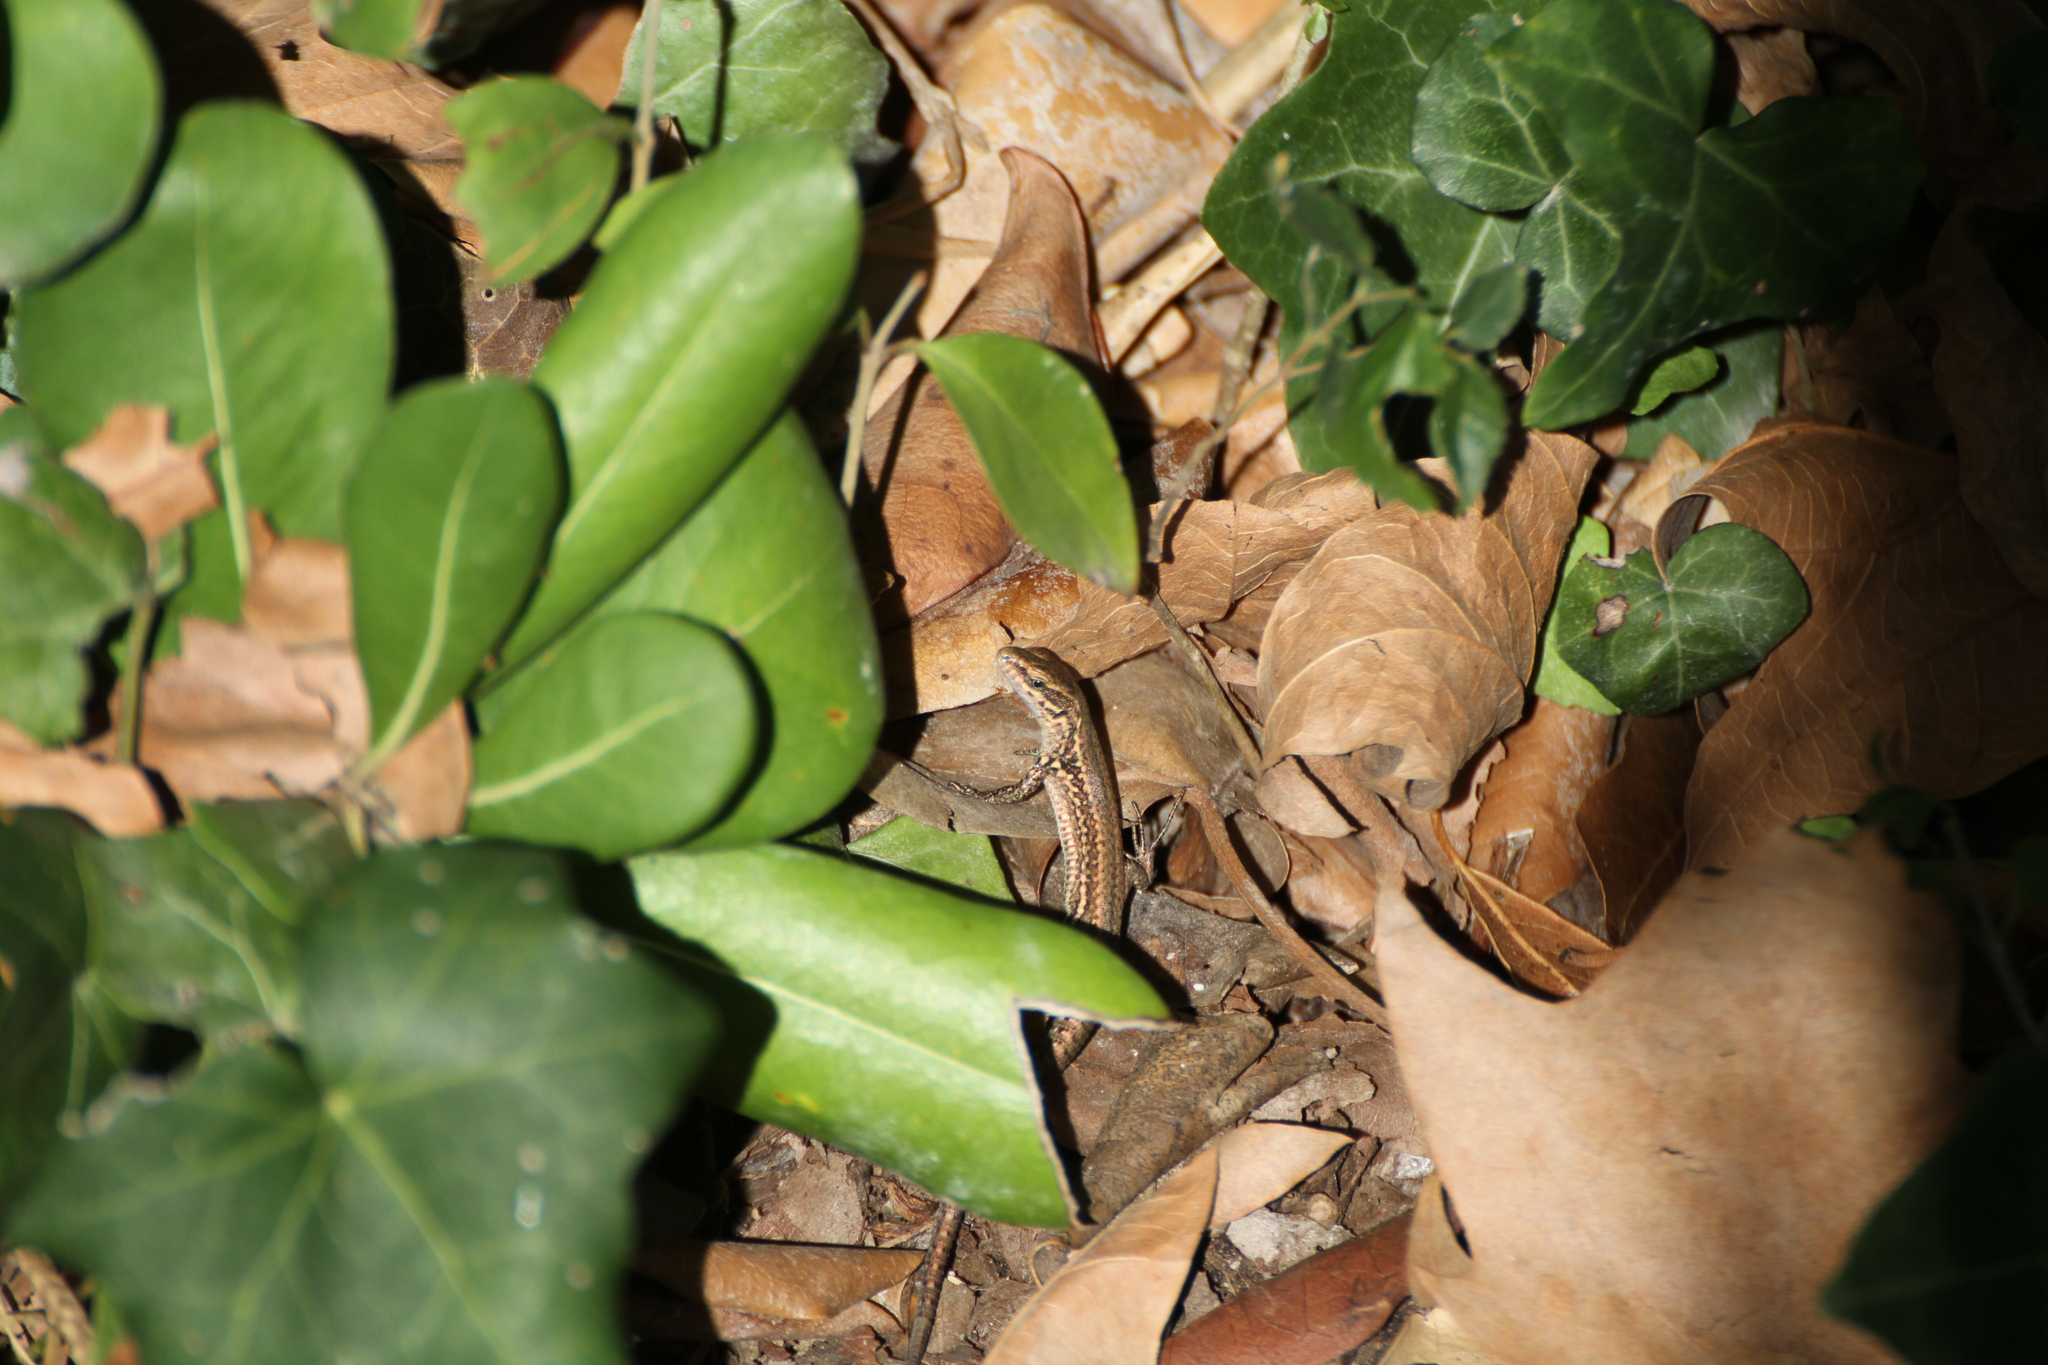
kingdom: Animalia
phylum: Chordata
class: Squamata
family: Lacertidae
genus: Podarcis
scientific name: Podarcis muralis
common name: Common wall lizard
